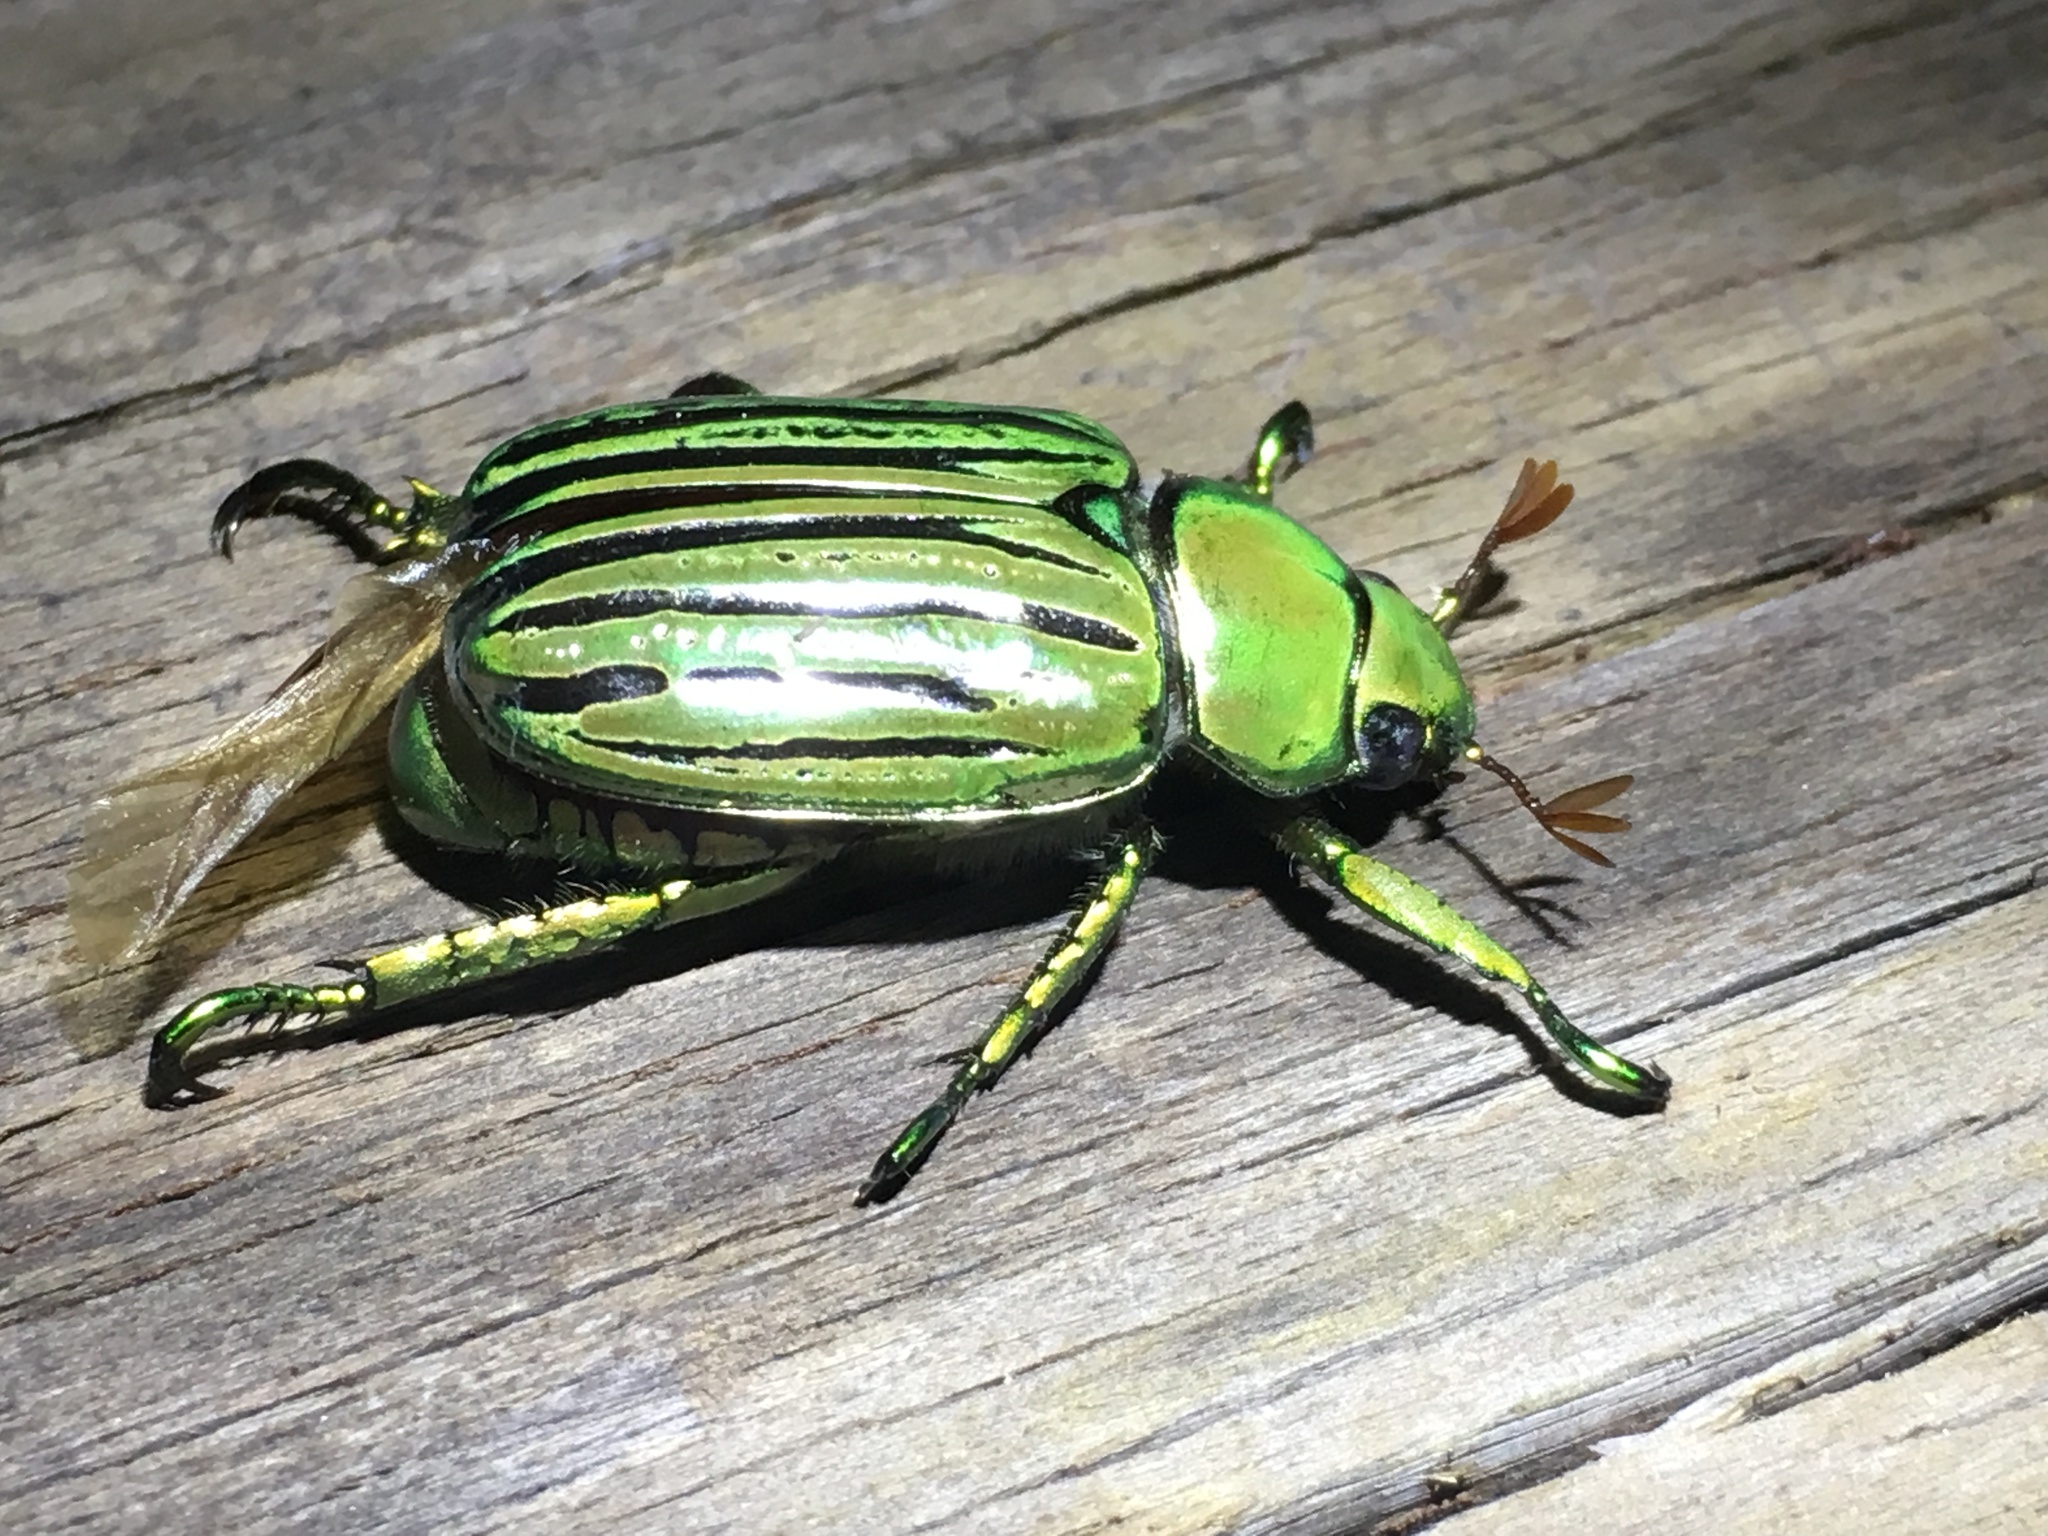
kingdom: Animalia
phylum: Arthropoda
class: Insecta
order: Coleoptera
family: Scarabaeidae
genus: Chrysina
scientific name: Chrysina gloriosa
